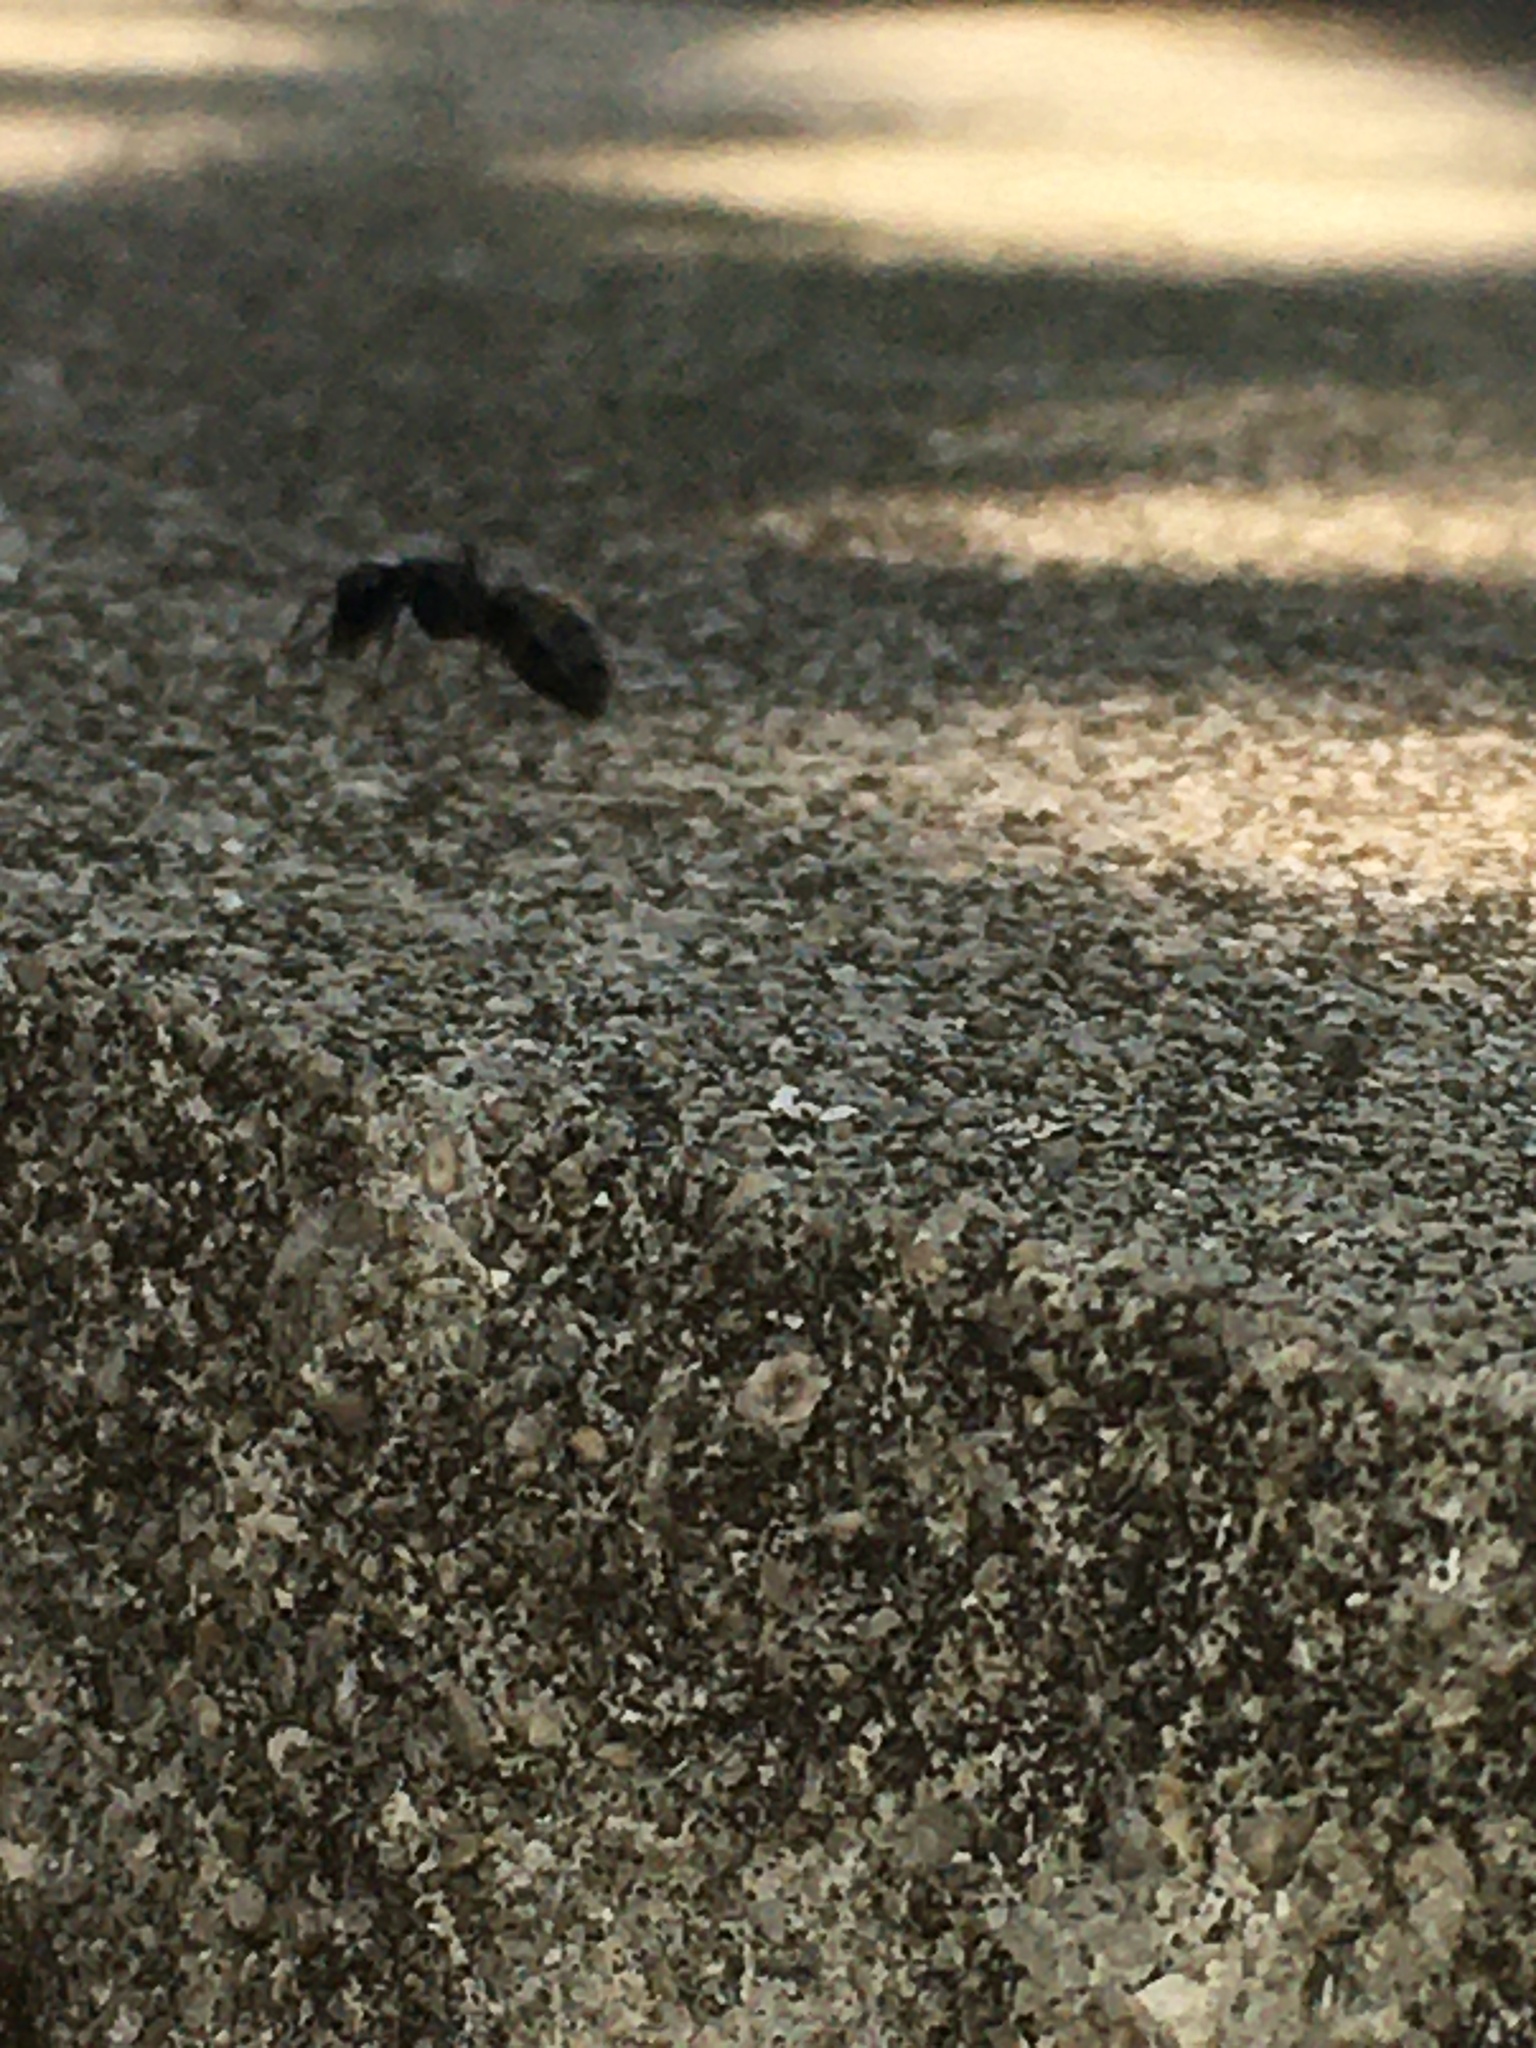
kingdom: Animalia
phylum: Arthropoda
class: Insecta
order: Hymenoptera
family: Formicidae
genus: Camponotus
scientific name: Camponotus pennsylvanicus
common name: Black carpenter ant
